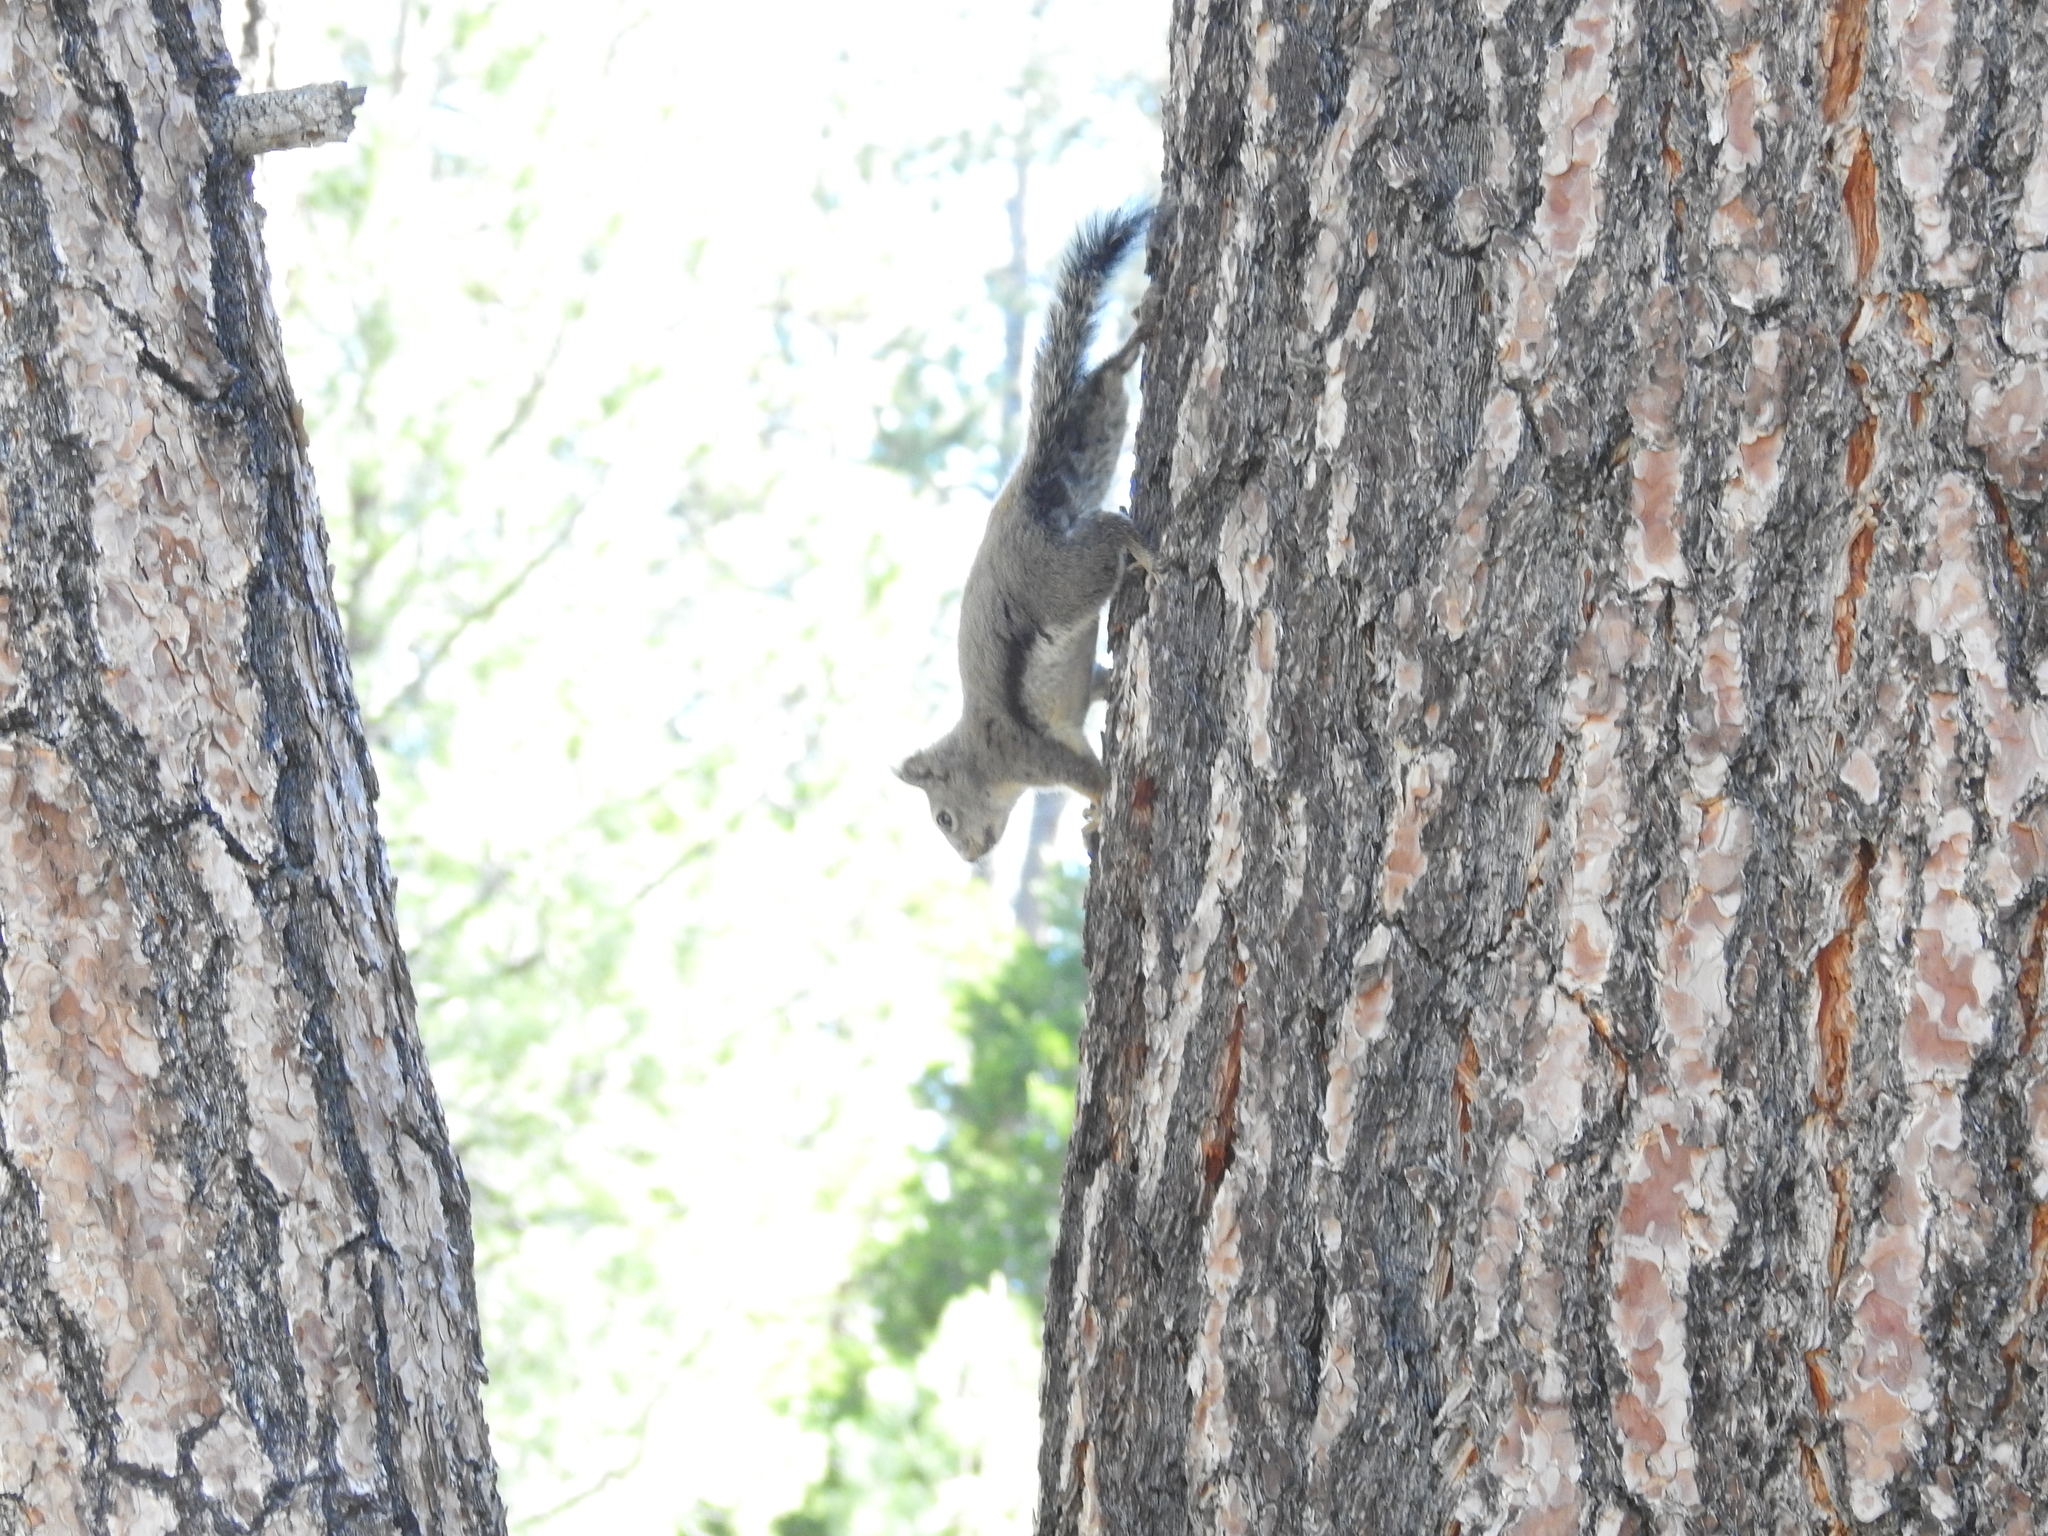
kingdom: Animalia
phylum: Chordata
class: Mammalia
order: Rodentia
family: Sciuridae
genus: Tamiasciurus
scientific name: Tamiasciurus douglasii
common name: Douglas's squirrel
